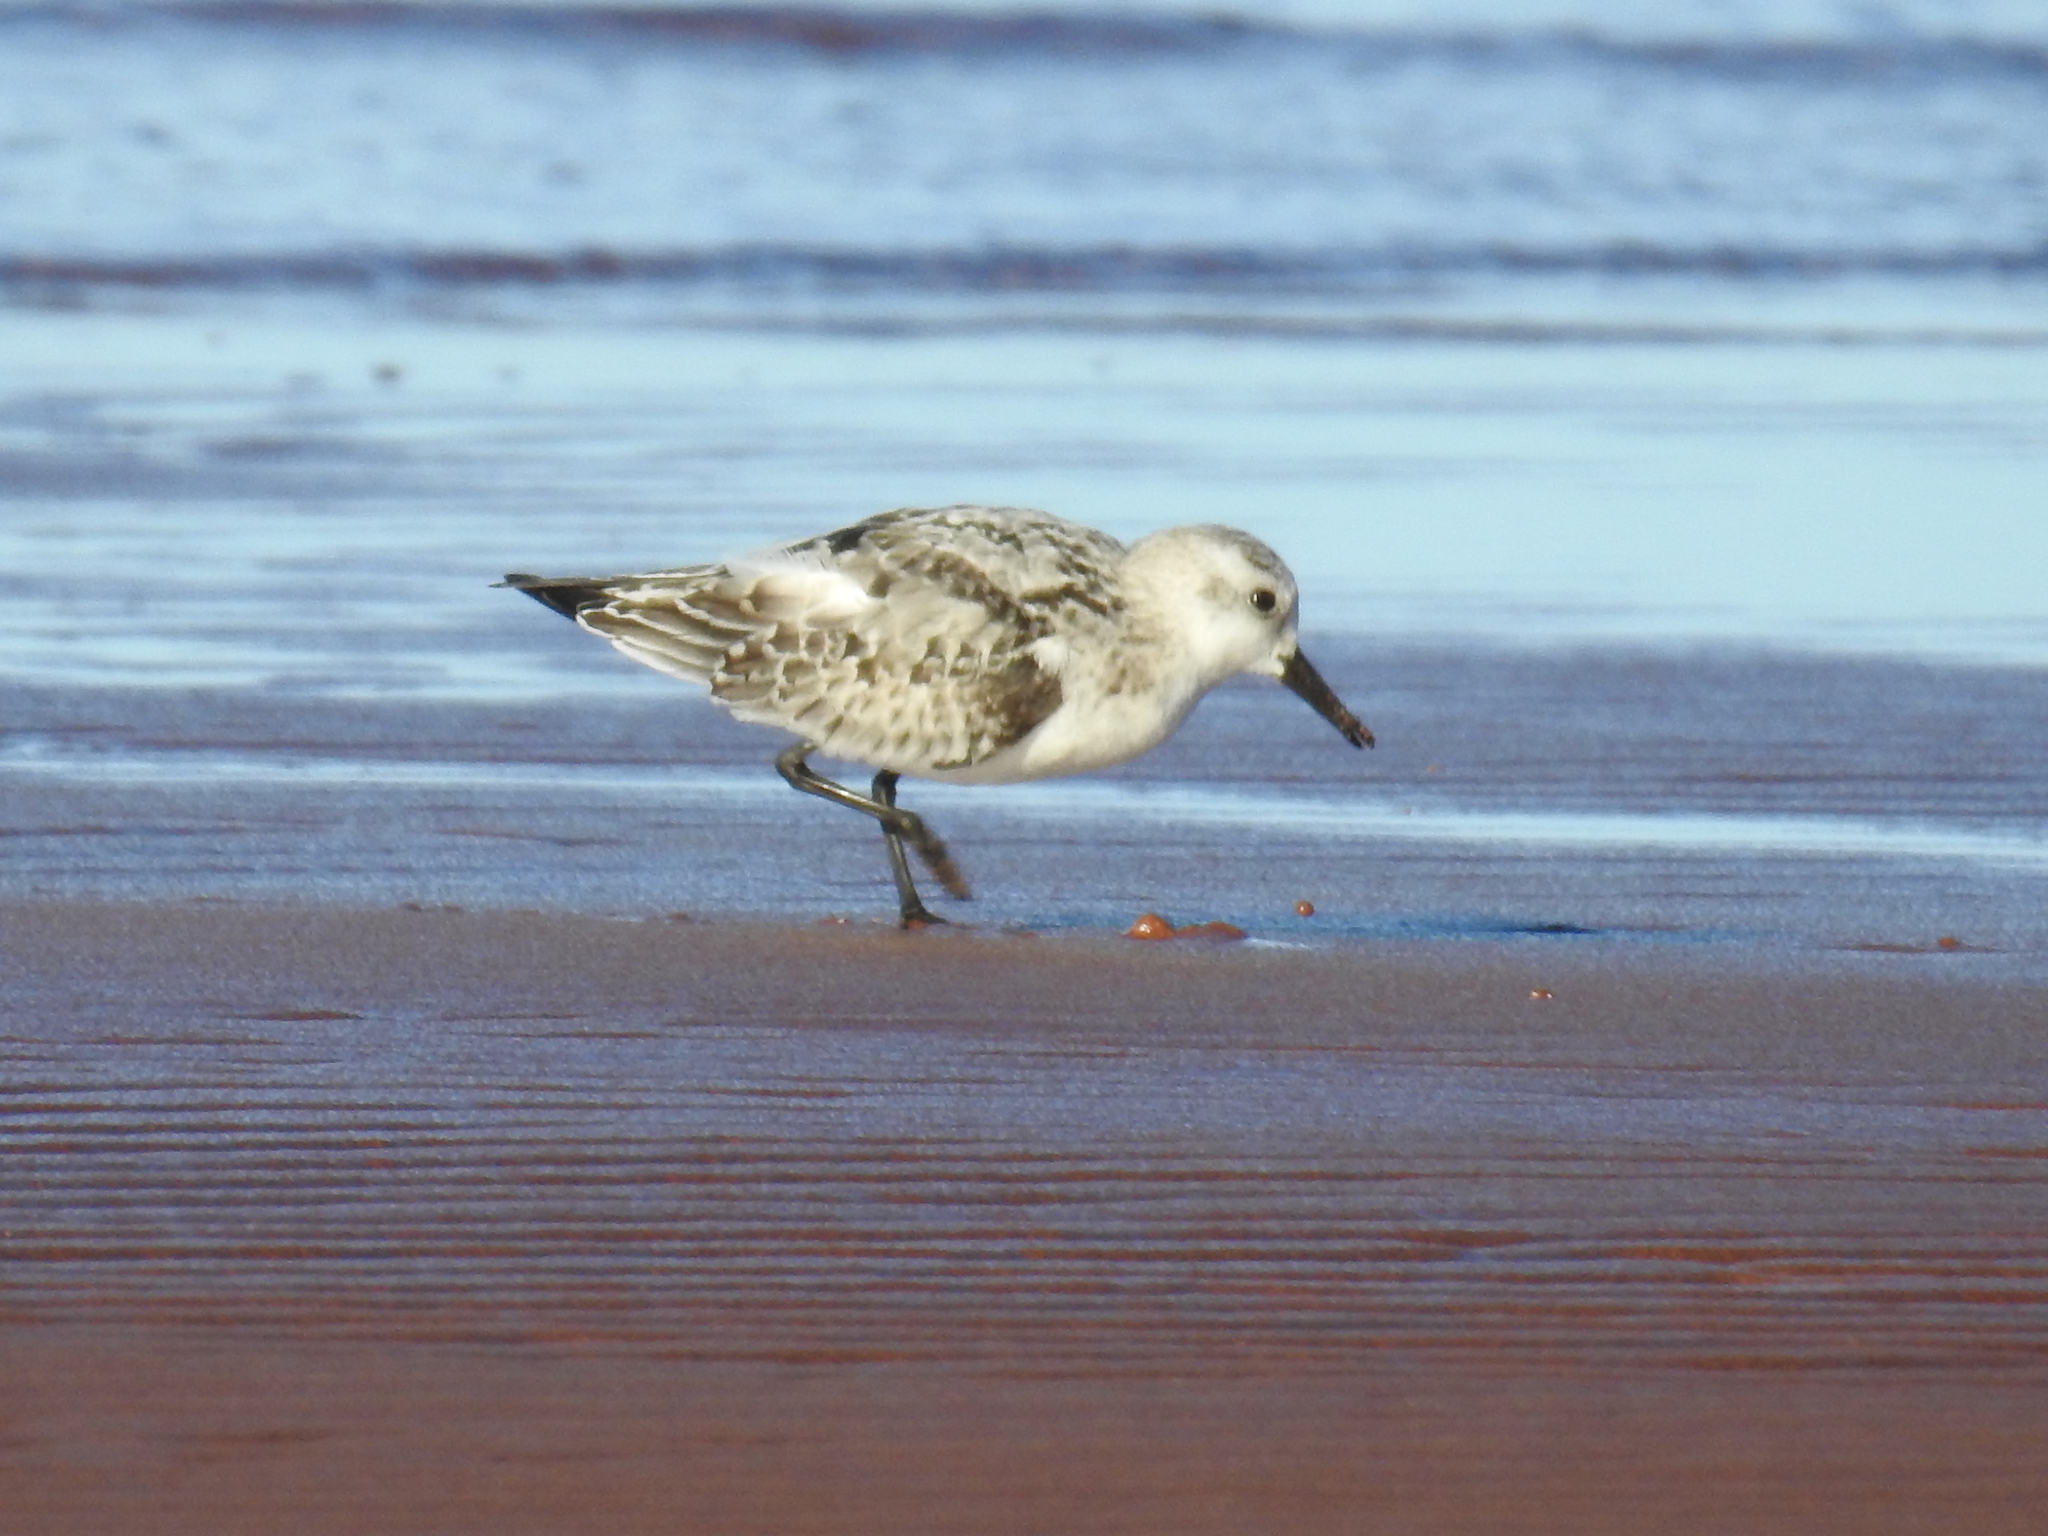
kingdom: Animalia
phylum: Chordata
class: Aves
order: Charadriiformes
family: Scolopacidae
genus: Calidris
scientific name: Calidris alba
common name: Sanderling
